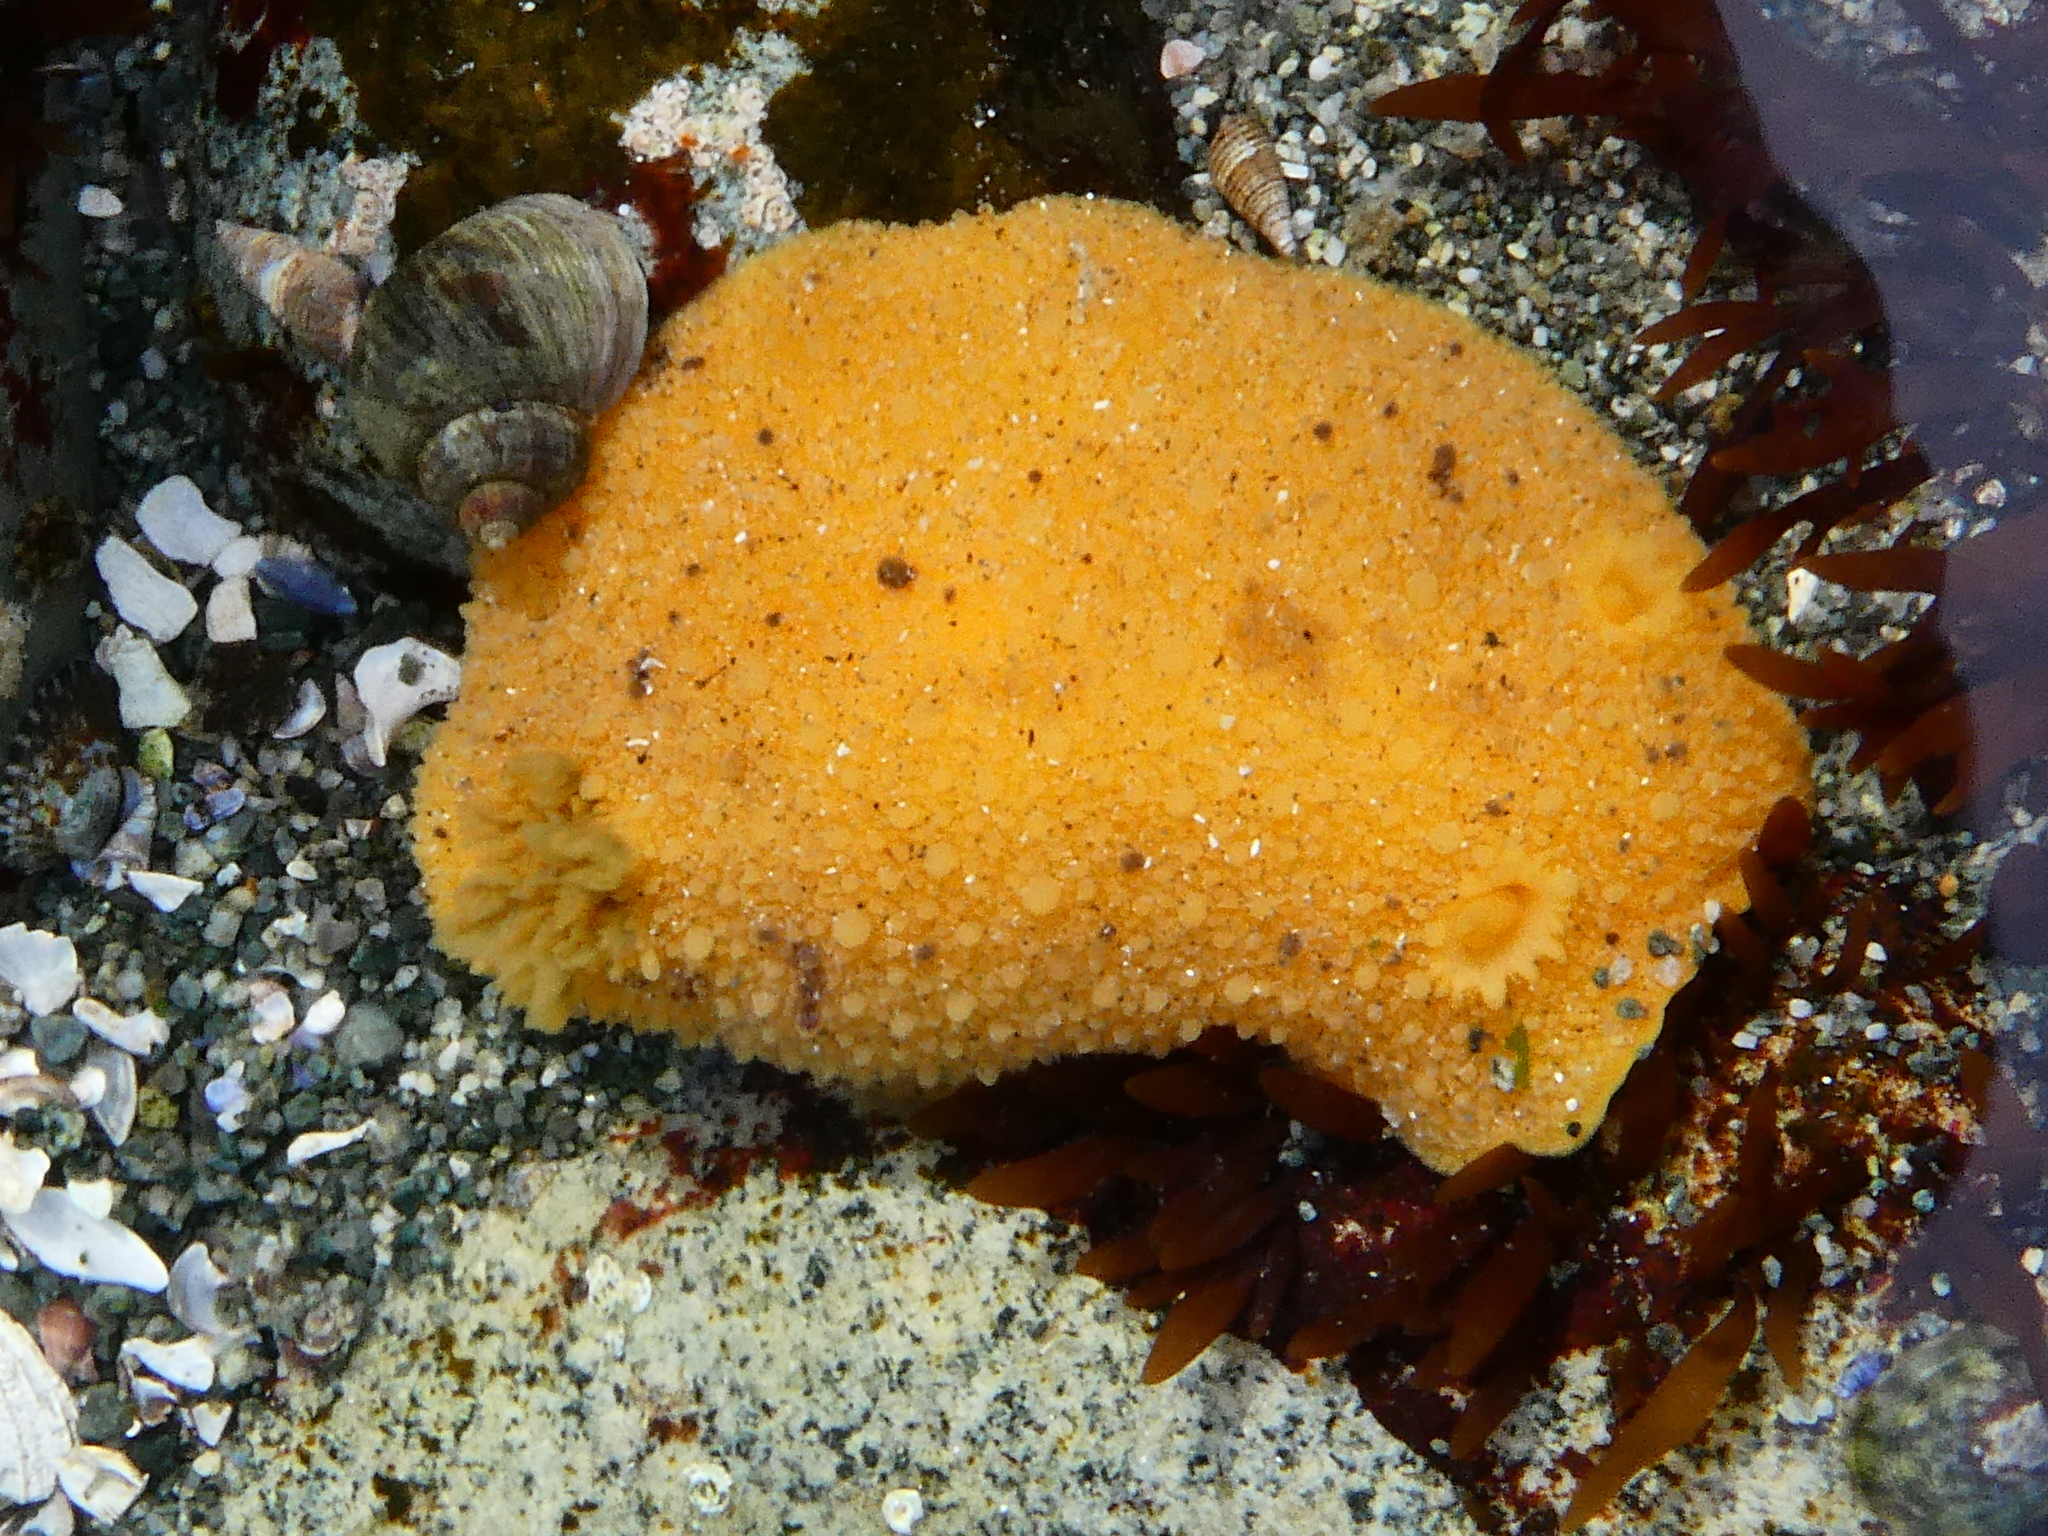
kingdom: Animalia
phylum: Mollusca
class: Gastropoda
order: Nudibranchia
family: Dorididae
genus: Doris
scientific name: Doris montereyensis
